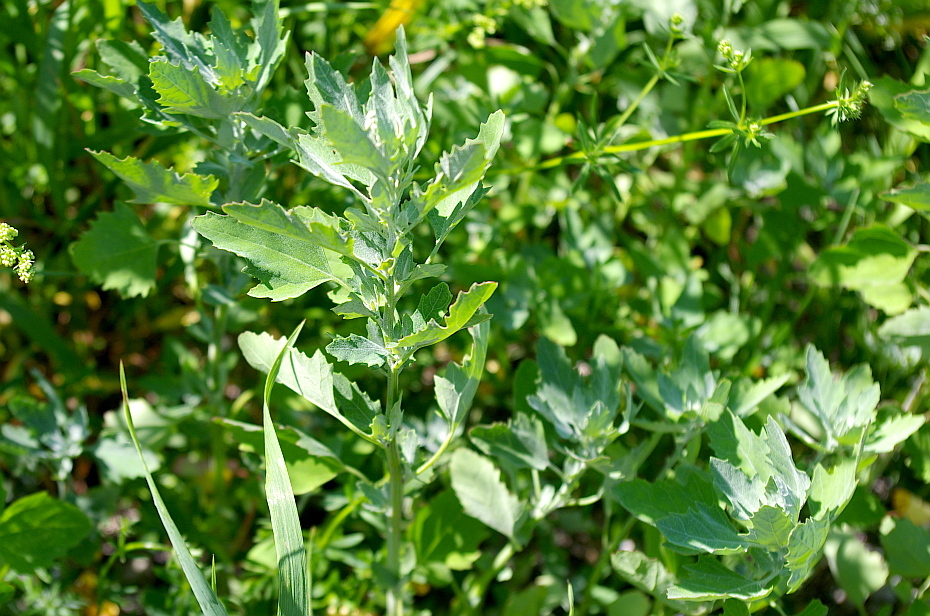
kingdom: Plantae
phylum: Tracheophyta
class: Magnoliopsida
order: Caryophyllales
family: Amaranthaceae
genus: Chenopodium
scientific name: Chenopodium album
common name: Fat-hen
